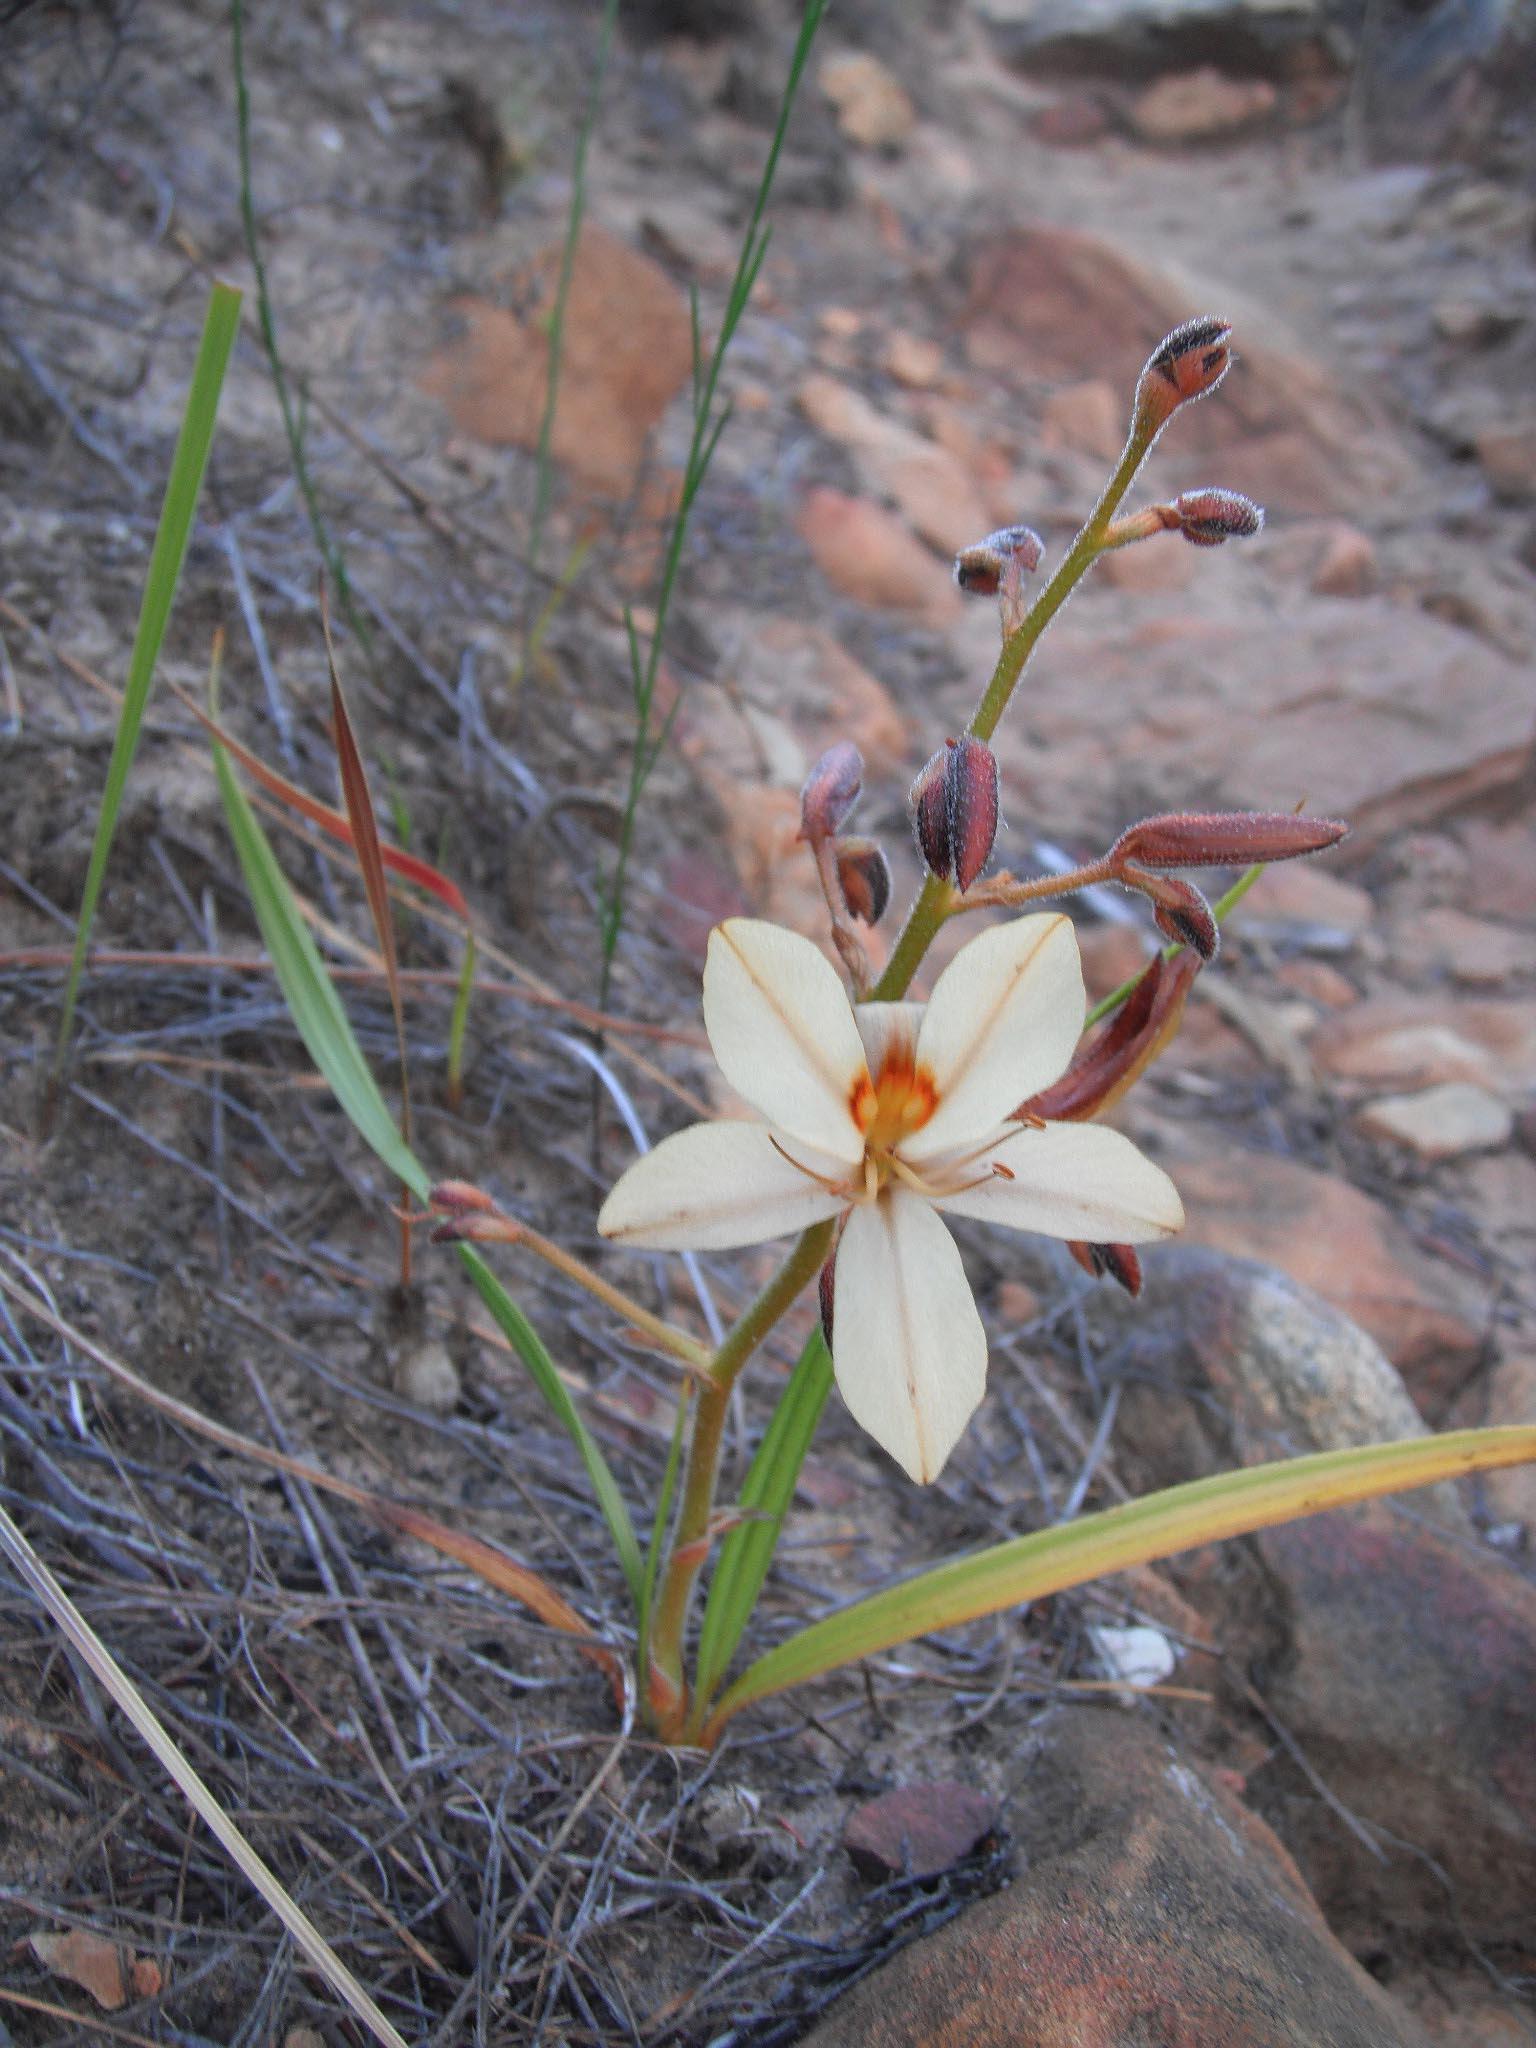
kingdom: Plantae
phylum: Tracheophyta
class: Liliopsida
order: Commelinales
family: Haemodoraceae
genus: Wachendorfia
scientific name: Wachendorfia paniculata
